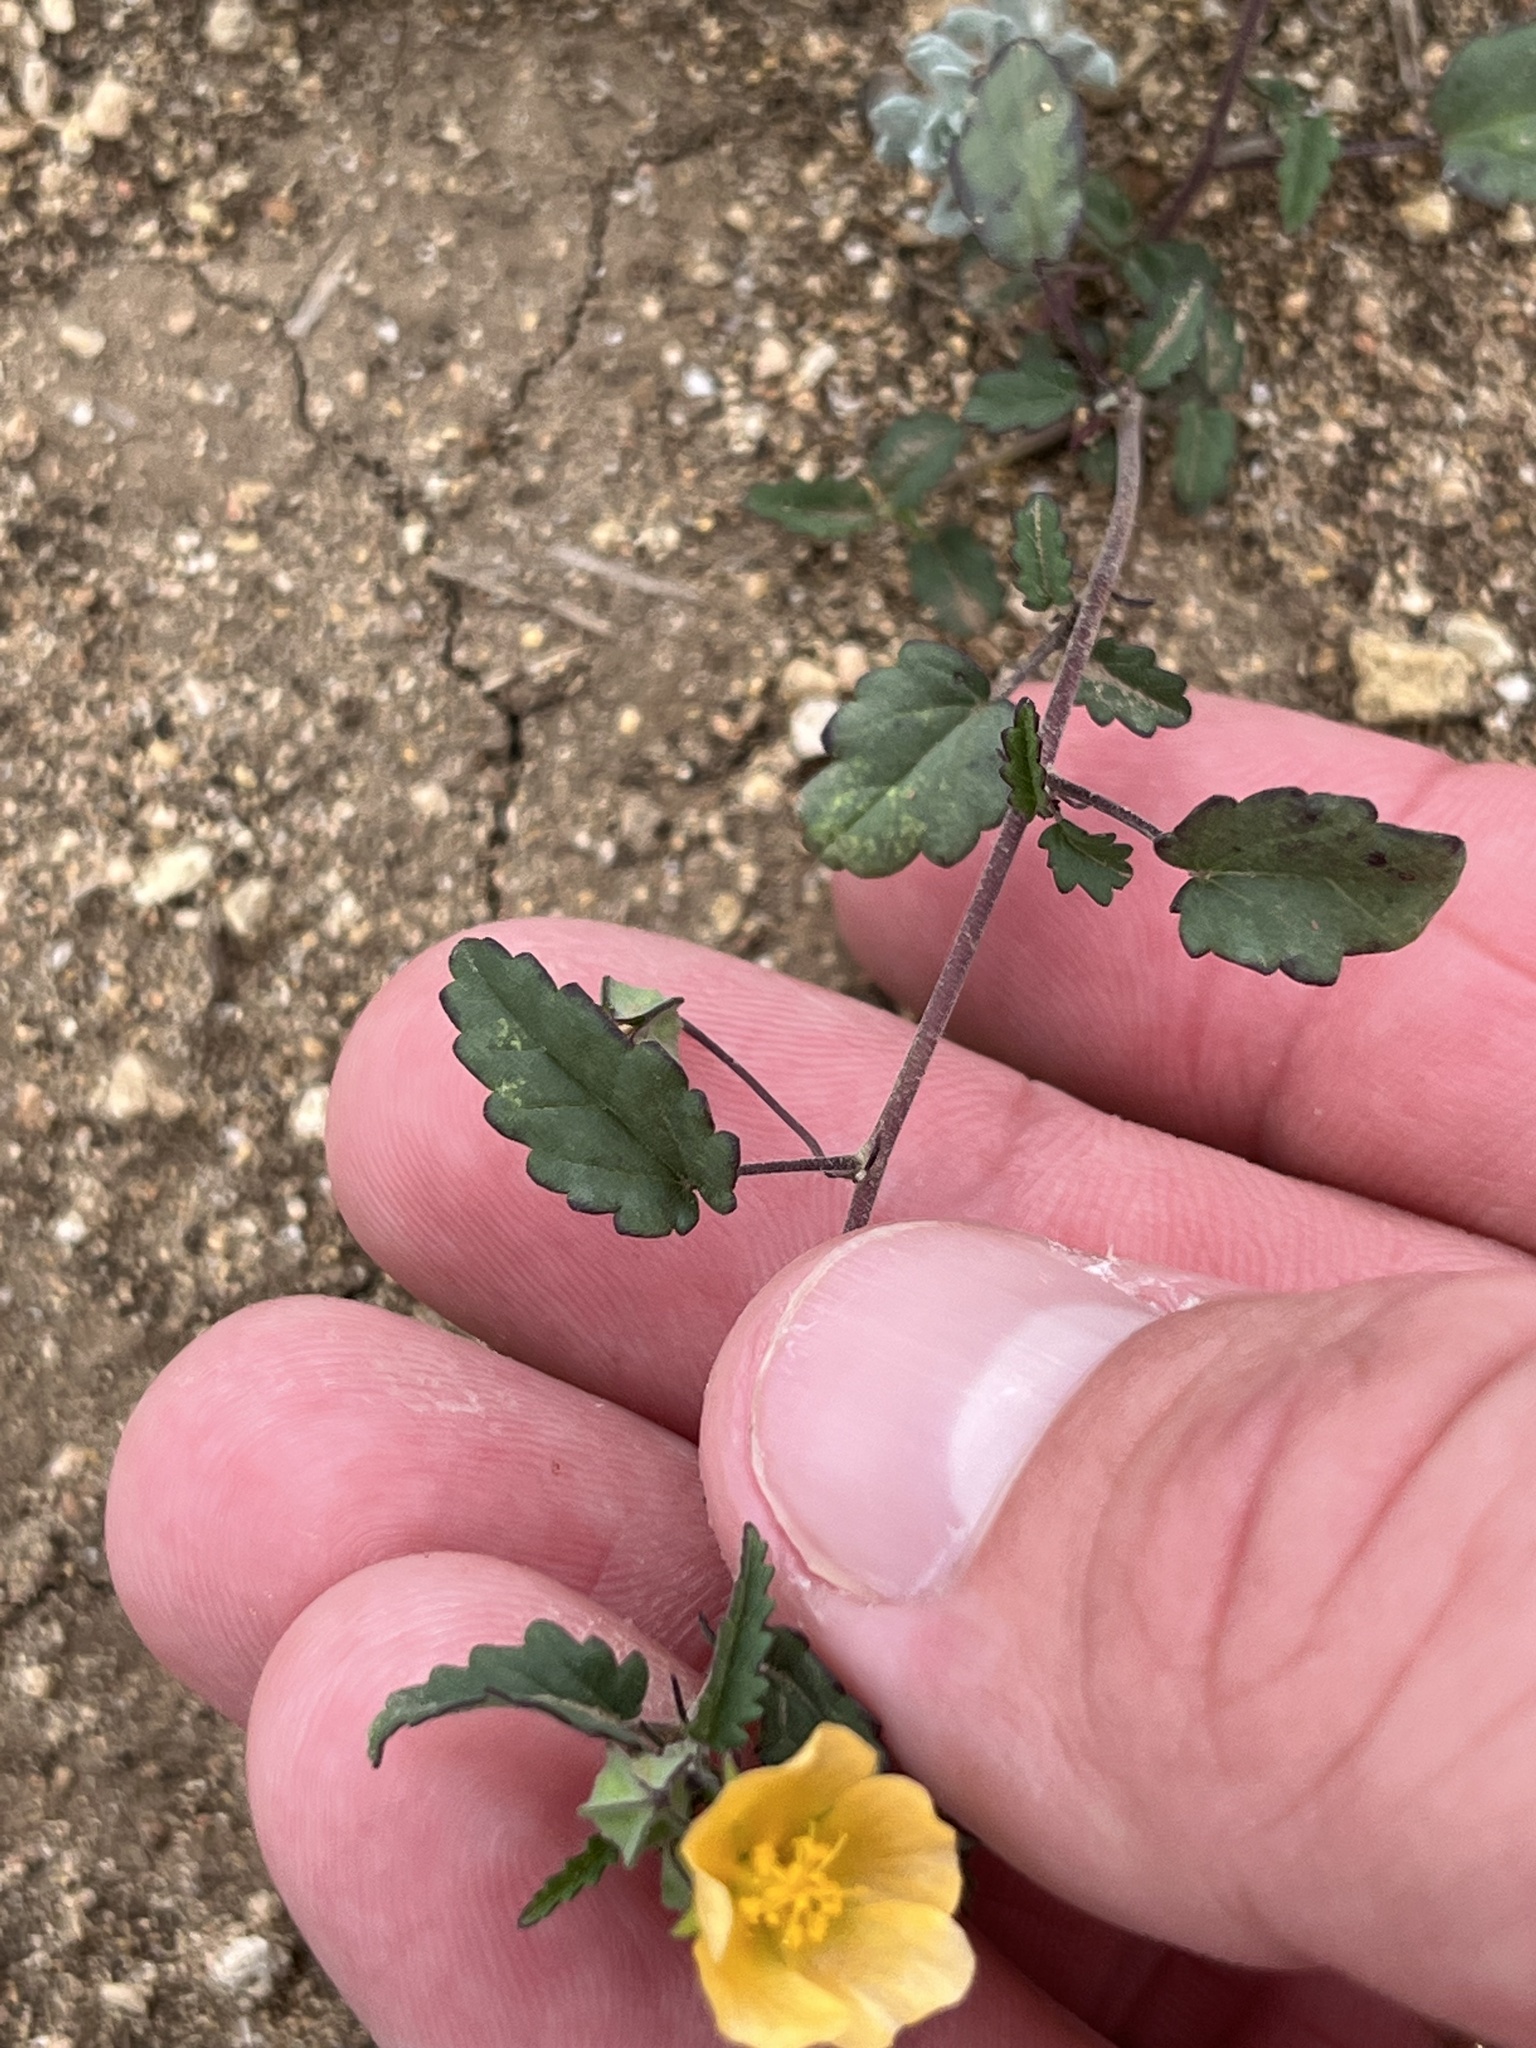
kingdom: Plantae
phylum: Tracheophyta
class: Magnoliopsida
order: Malvales
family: Malvaceae
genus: Sida
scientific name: Sida abutilifolia
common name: Spreading fanpetals
